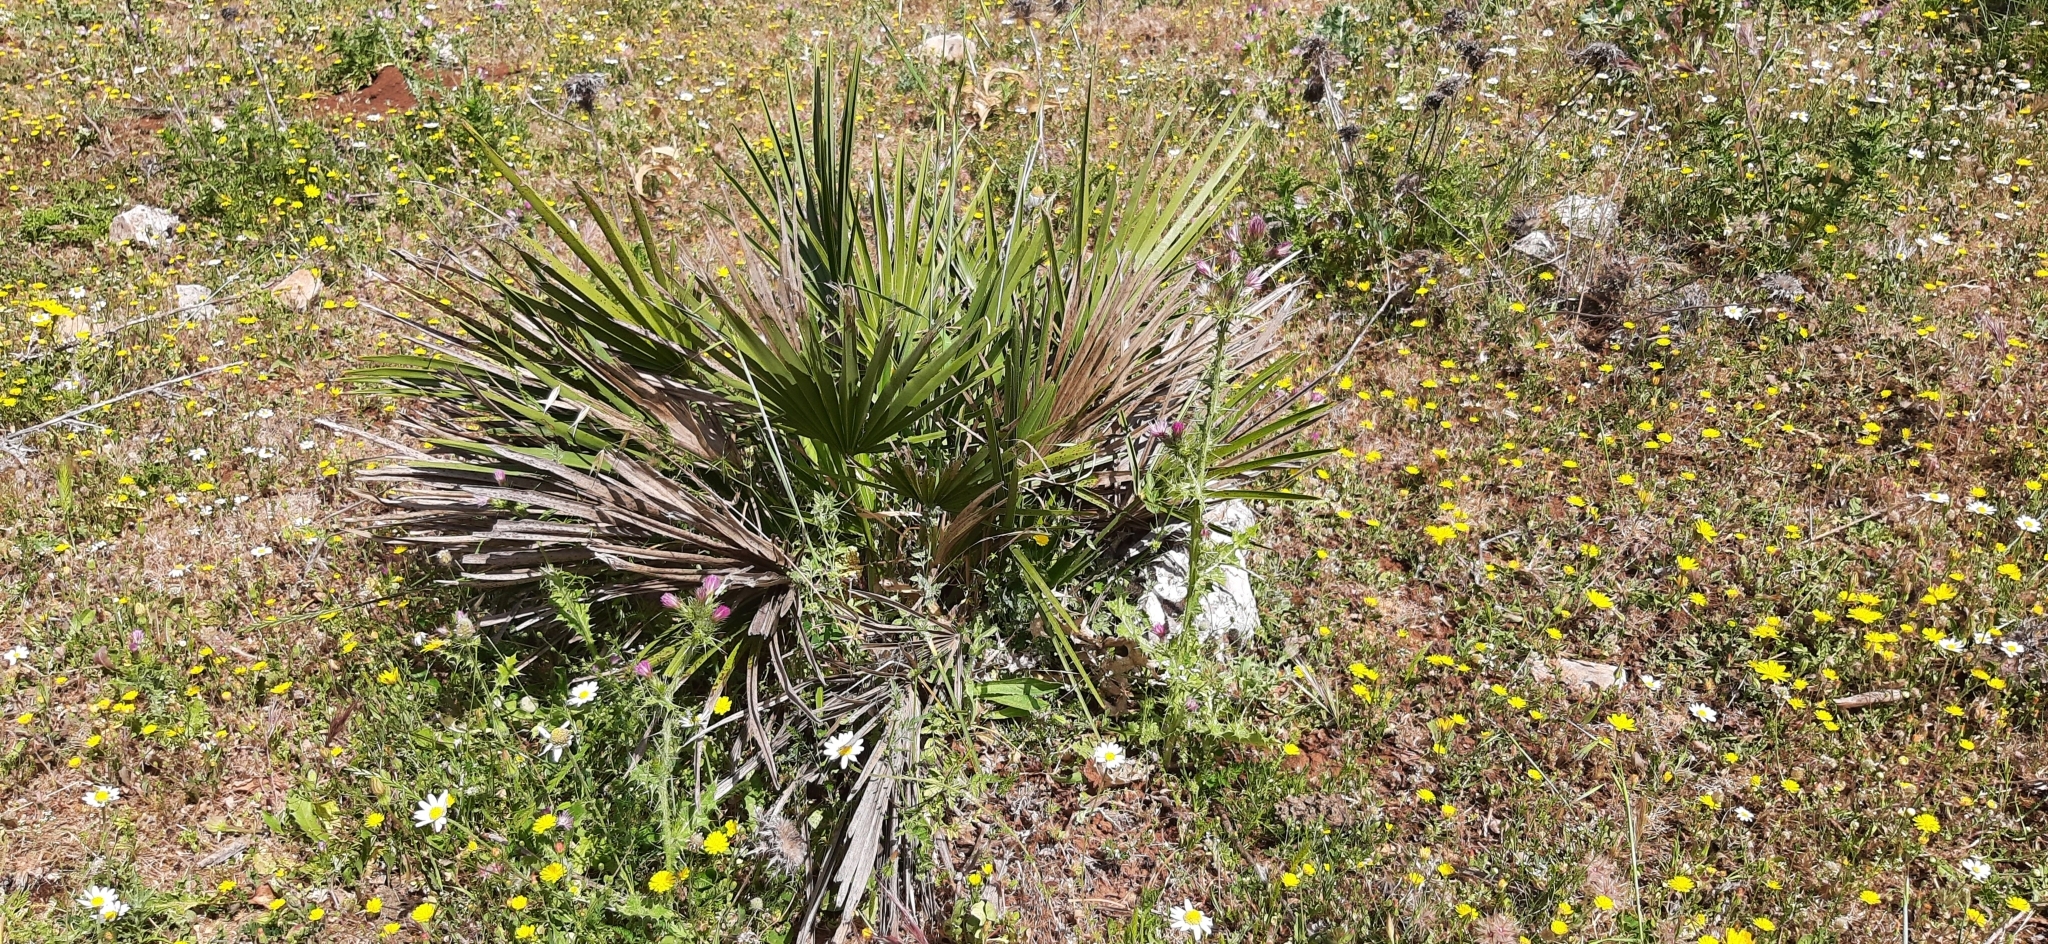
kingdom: Plantae
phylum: Tracheophyta
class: Liliopsida
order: Arecales
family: Arecaceae
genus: Chamaerops
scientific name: Chamaerops humilis
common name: Dwarf fan palm
